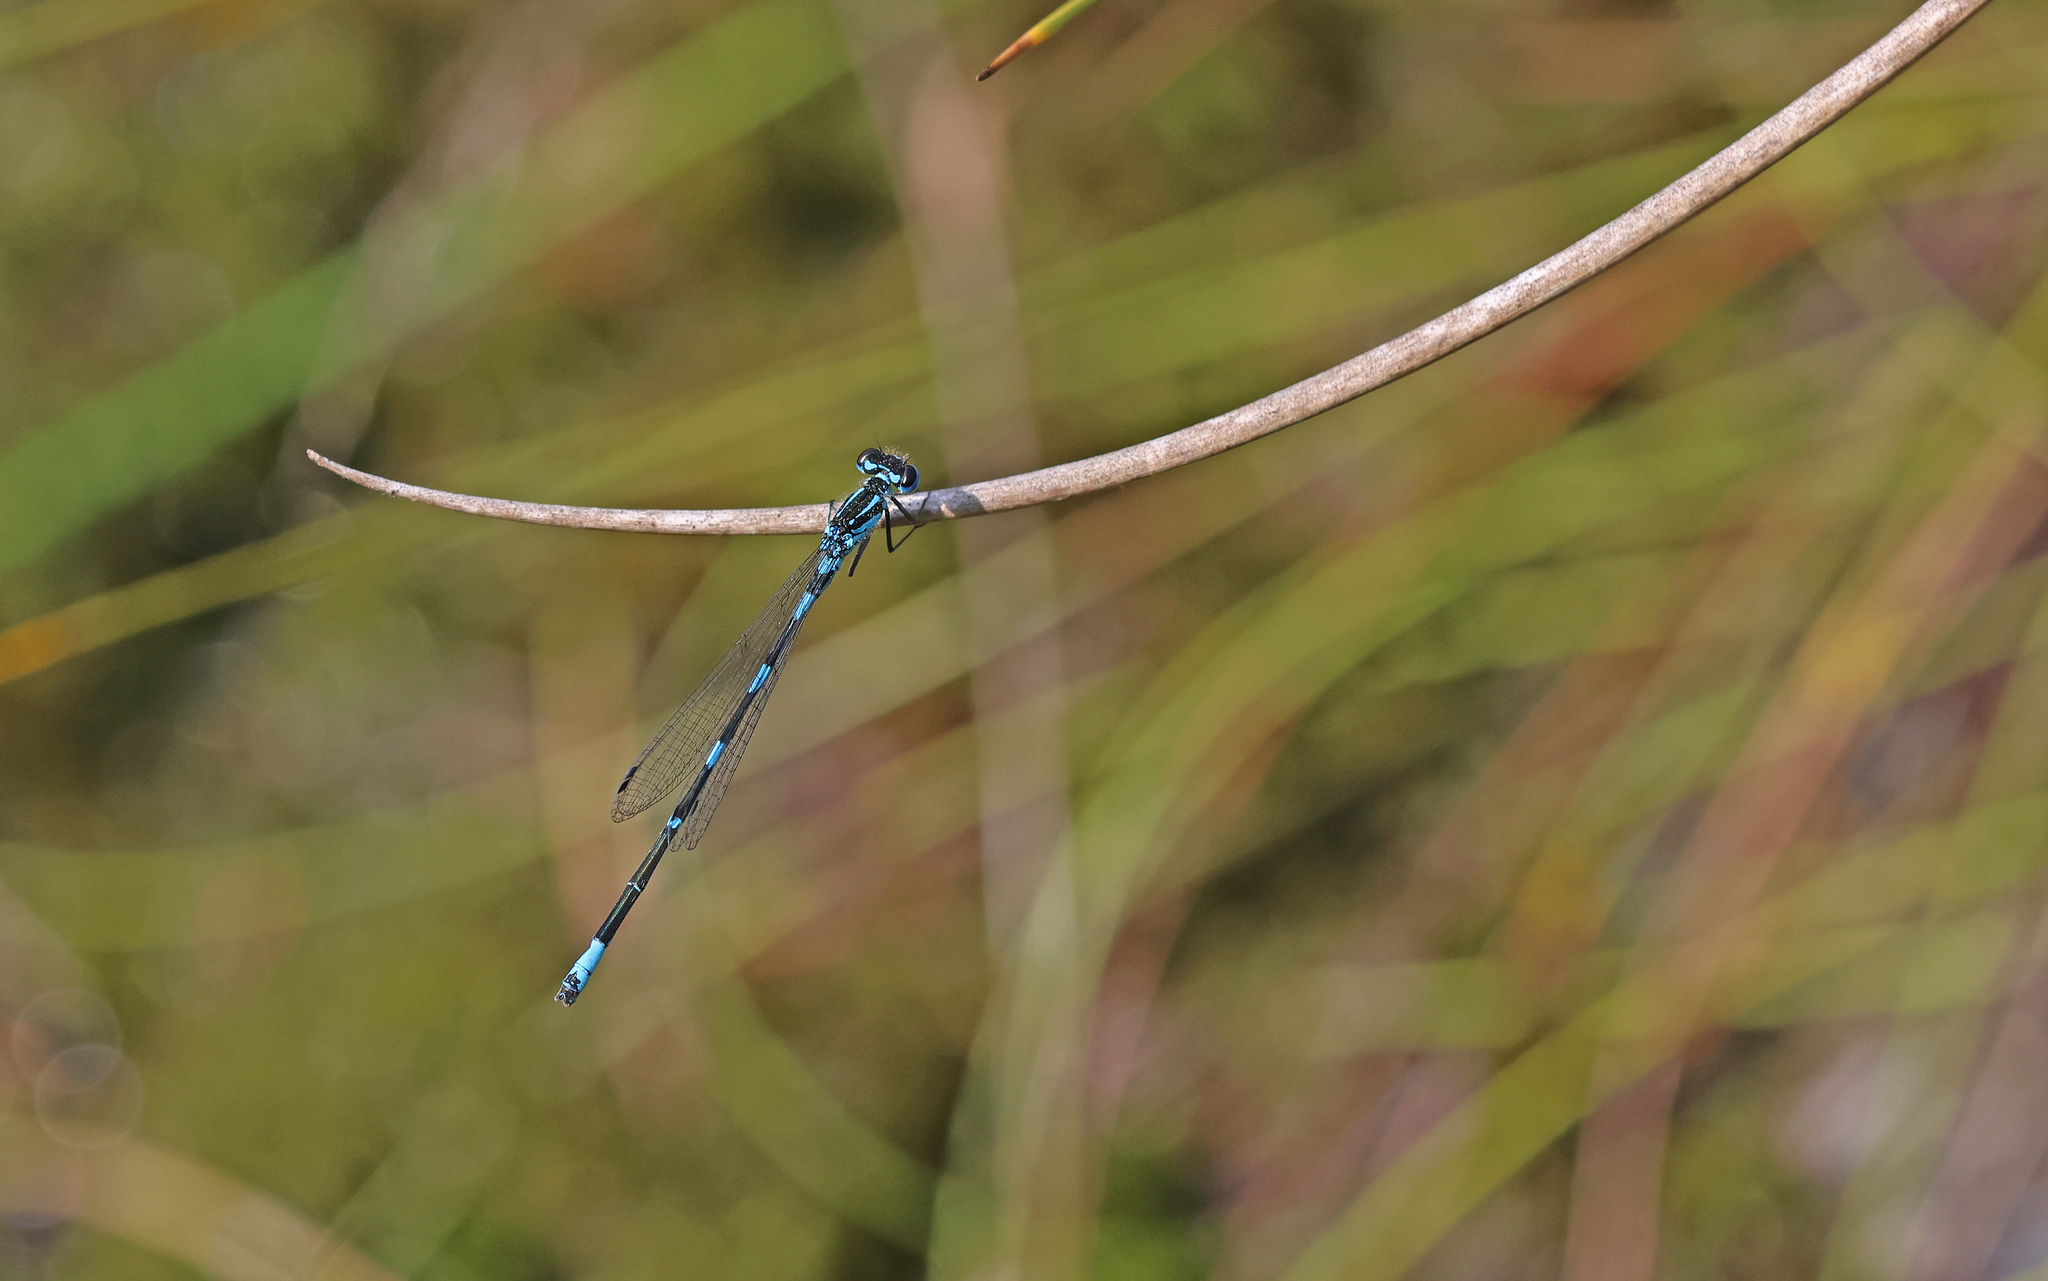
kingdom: Animalia
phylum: Arthropoda
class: Insecta
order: Odonata
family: Coenagrionidae
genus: Coenagrion
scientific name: Coenagrion pulchellum
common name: Variable bluet
